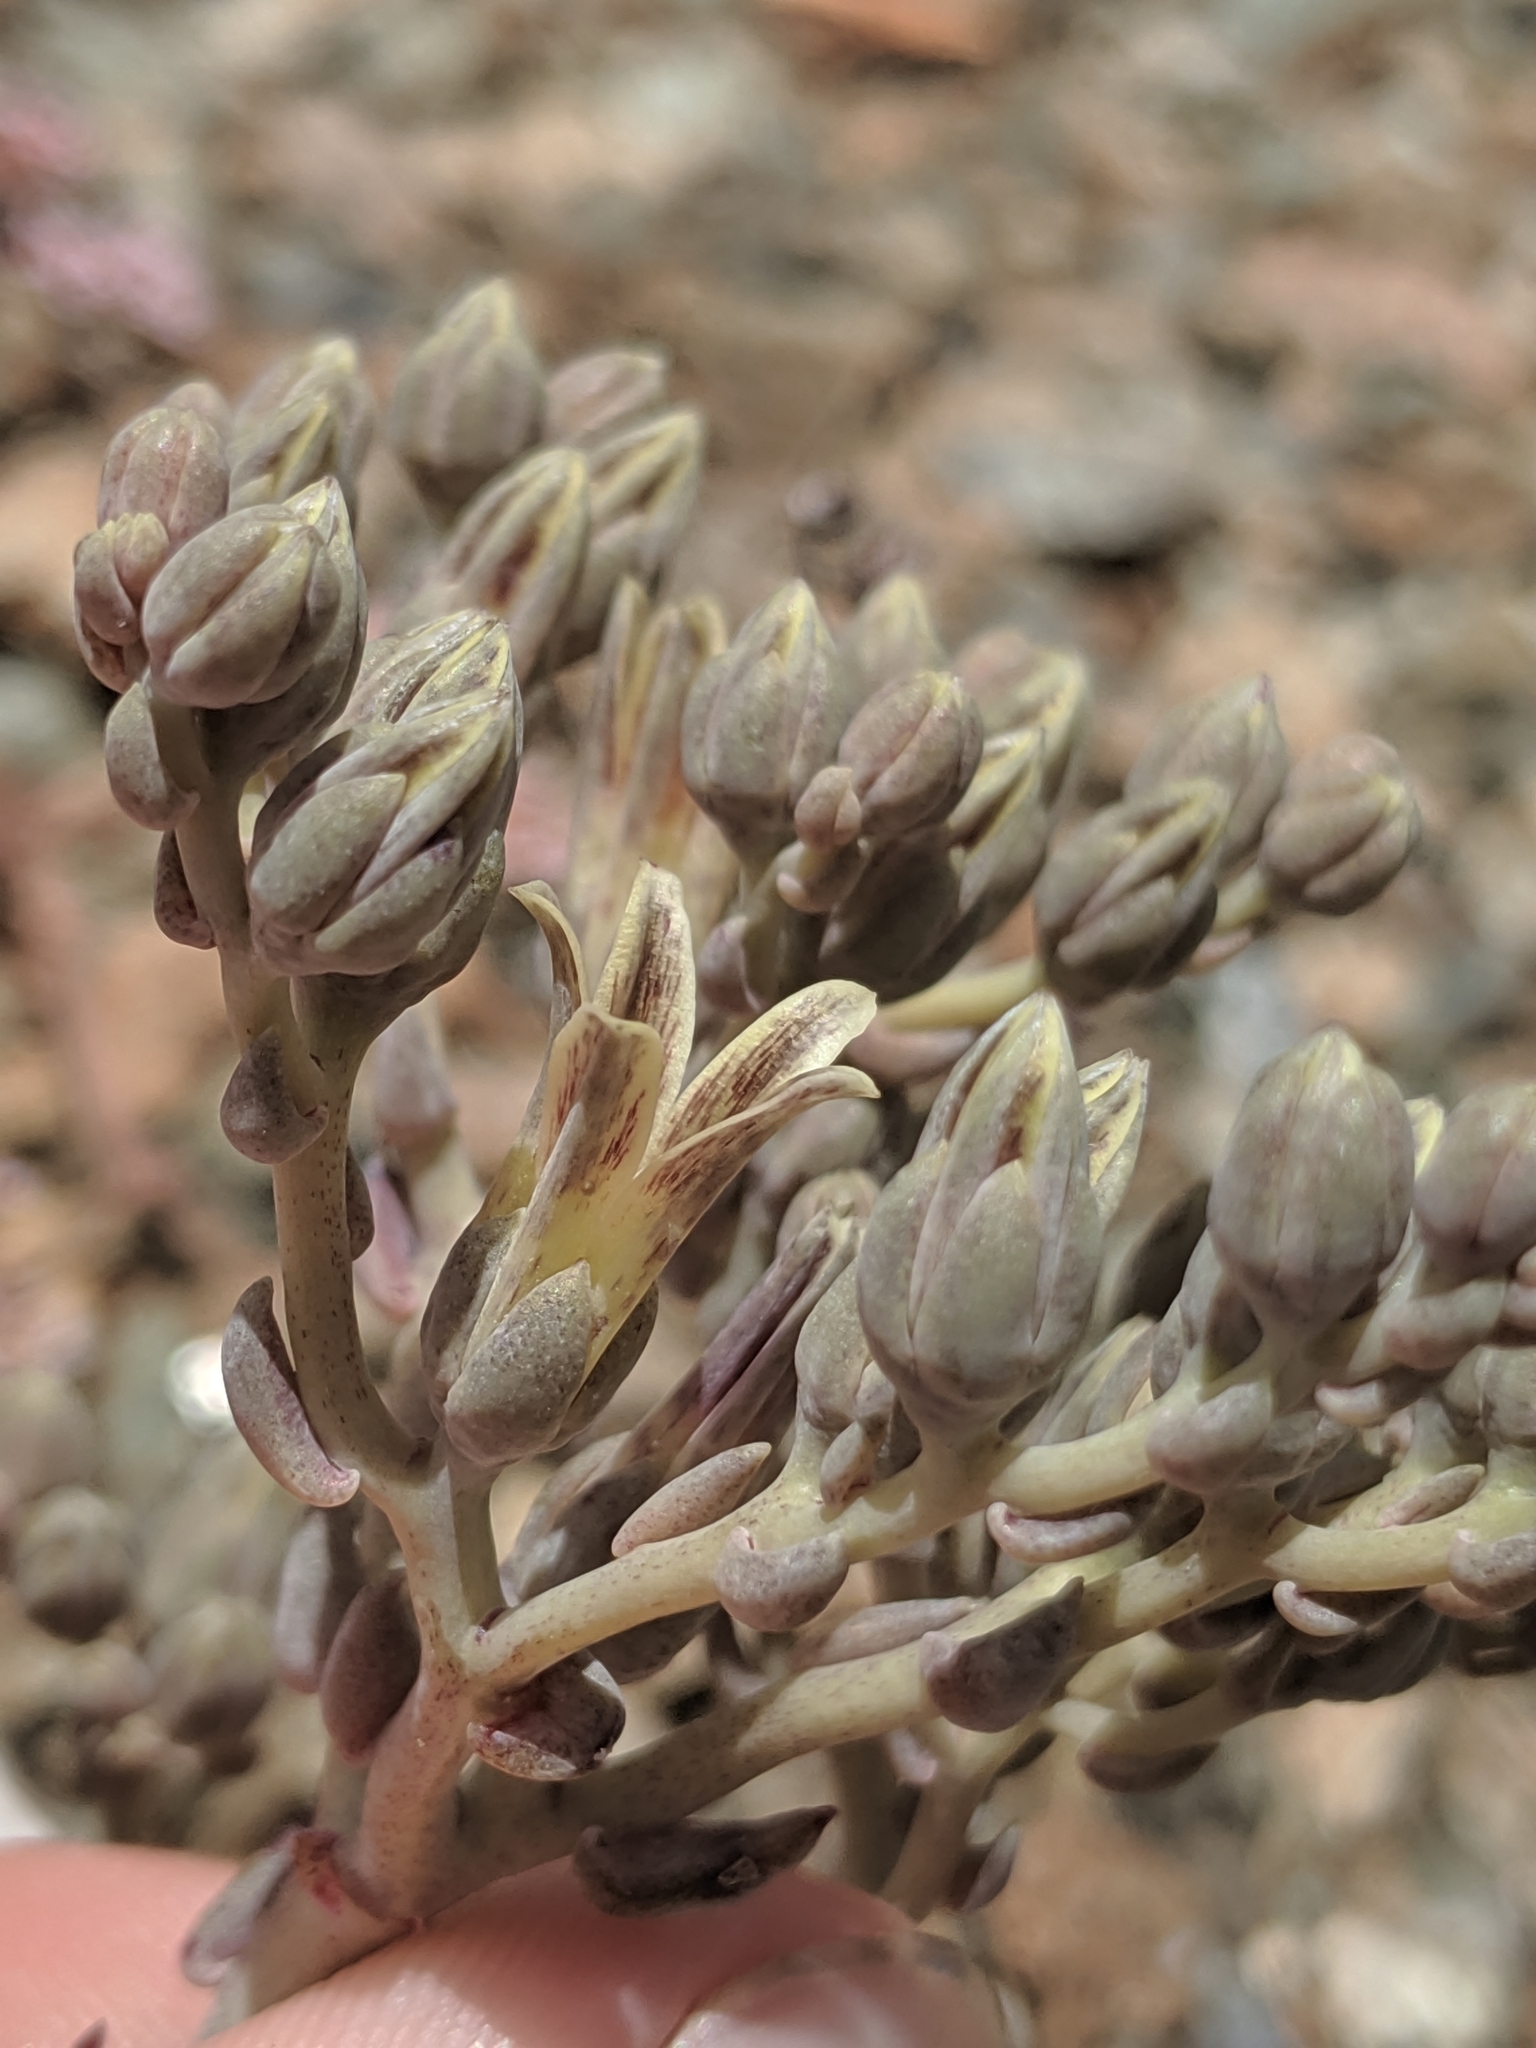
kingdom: Plantae
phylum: Tracheophyta
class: Magnoliopsida
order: Saxifragales
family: Crassulaceae
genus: Dudleya
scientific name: Dudleya abramsii
